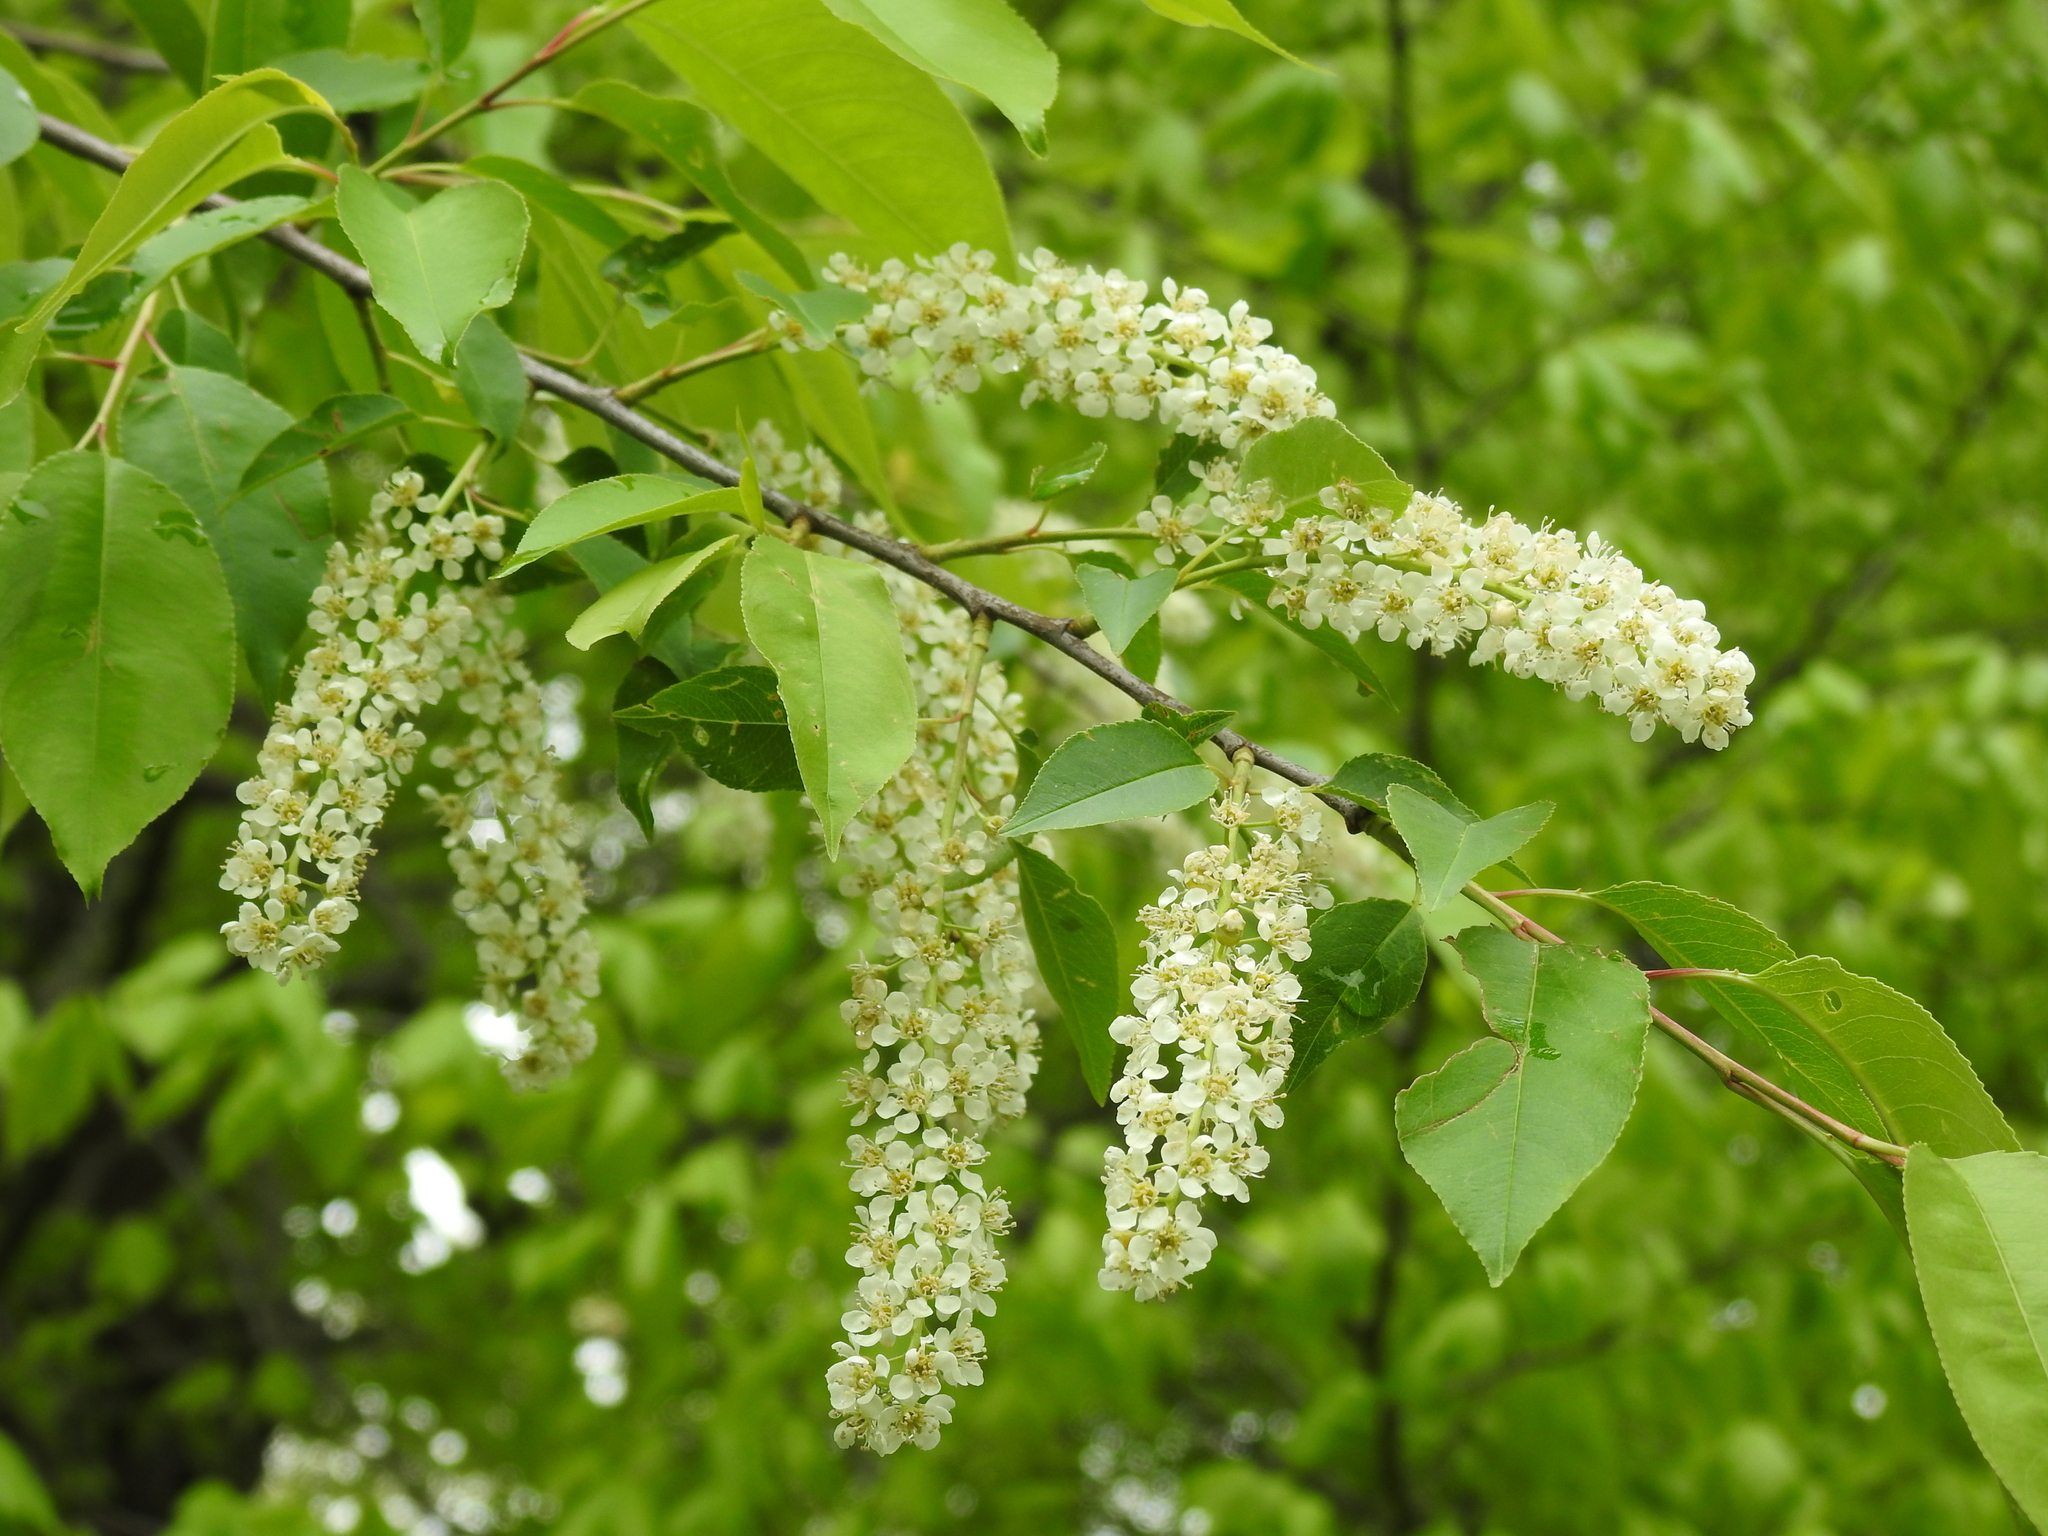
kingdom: Plantae
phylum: Tracheophyta
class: Magnoliopsida
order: Rosales
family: Rosaceae
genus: Prunus
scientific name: Prunus serotina
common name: Black cherry
